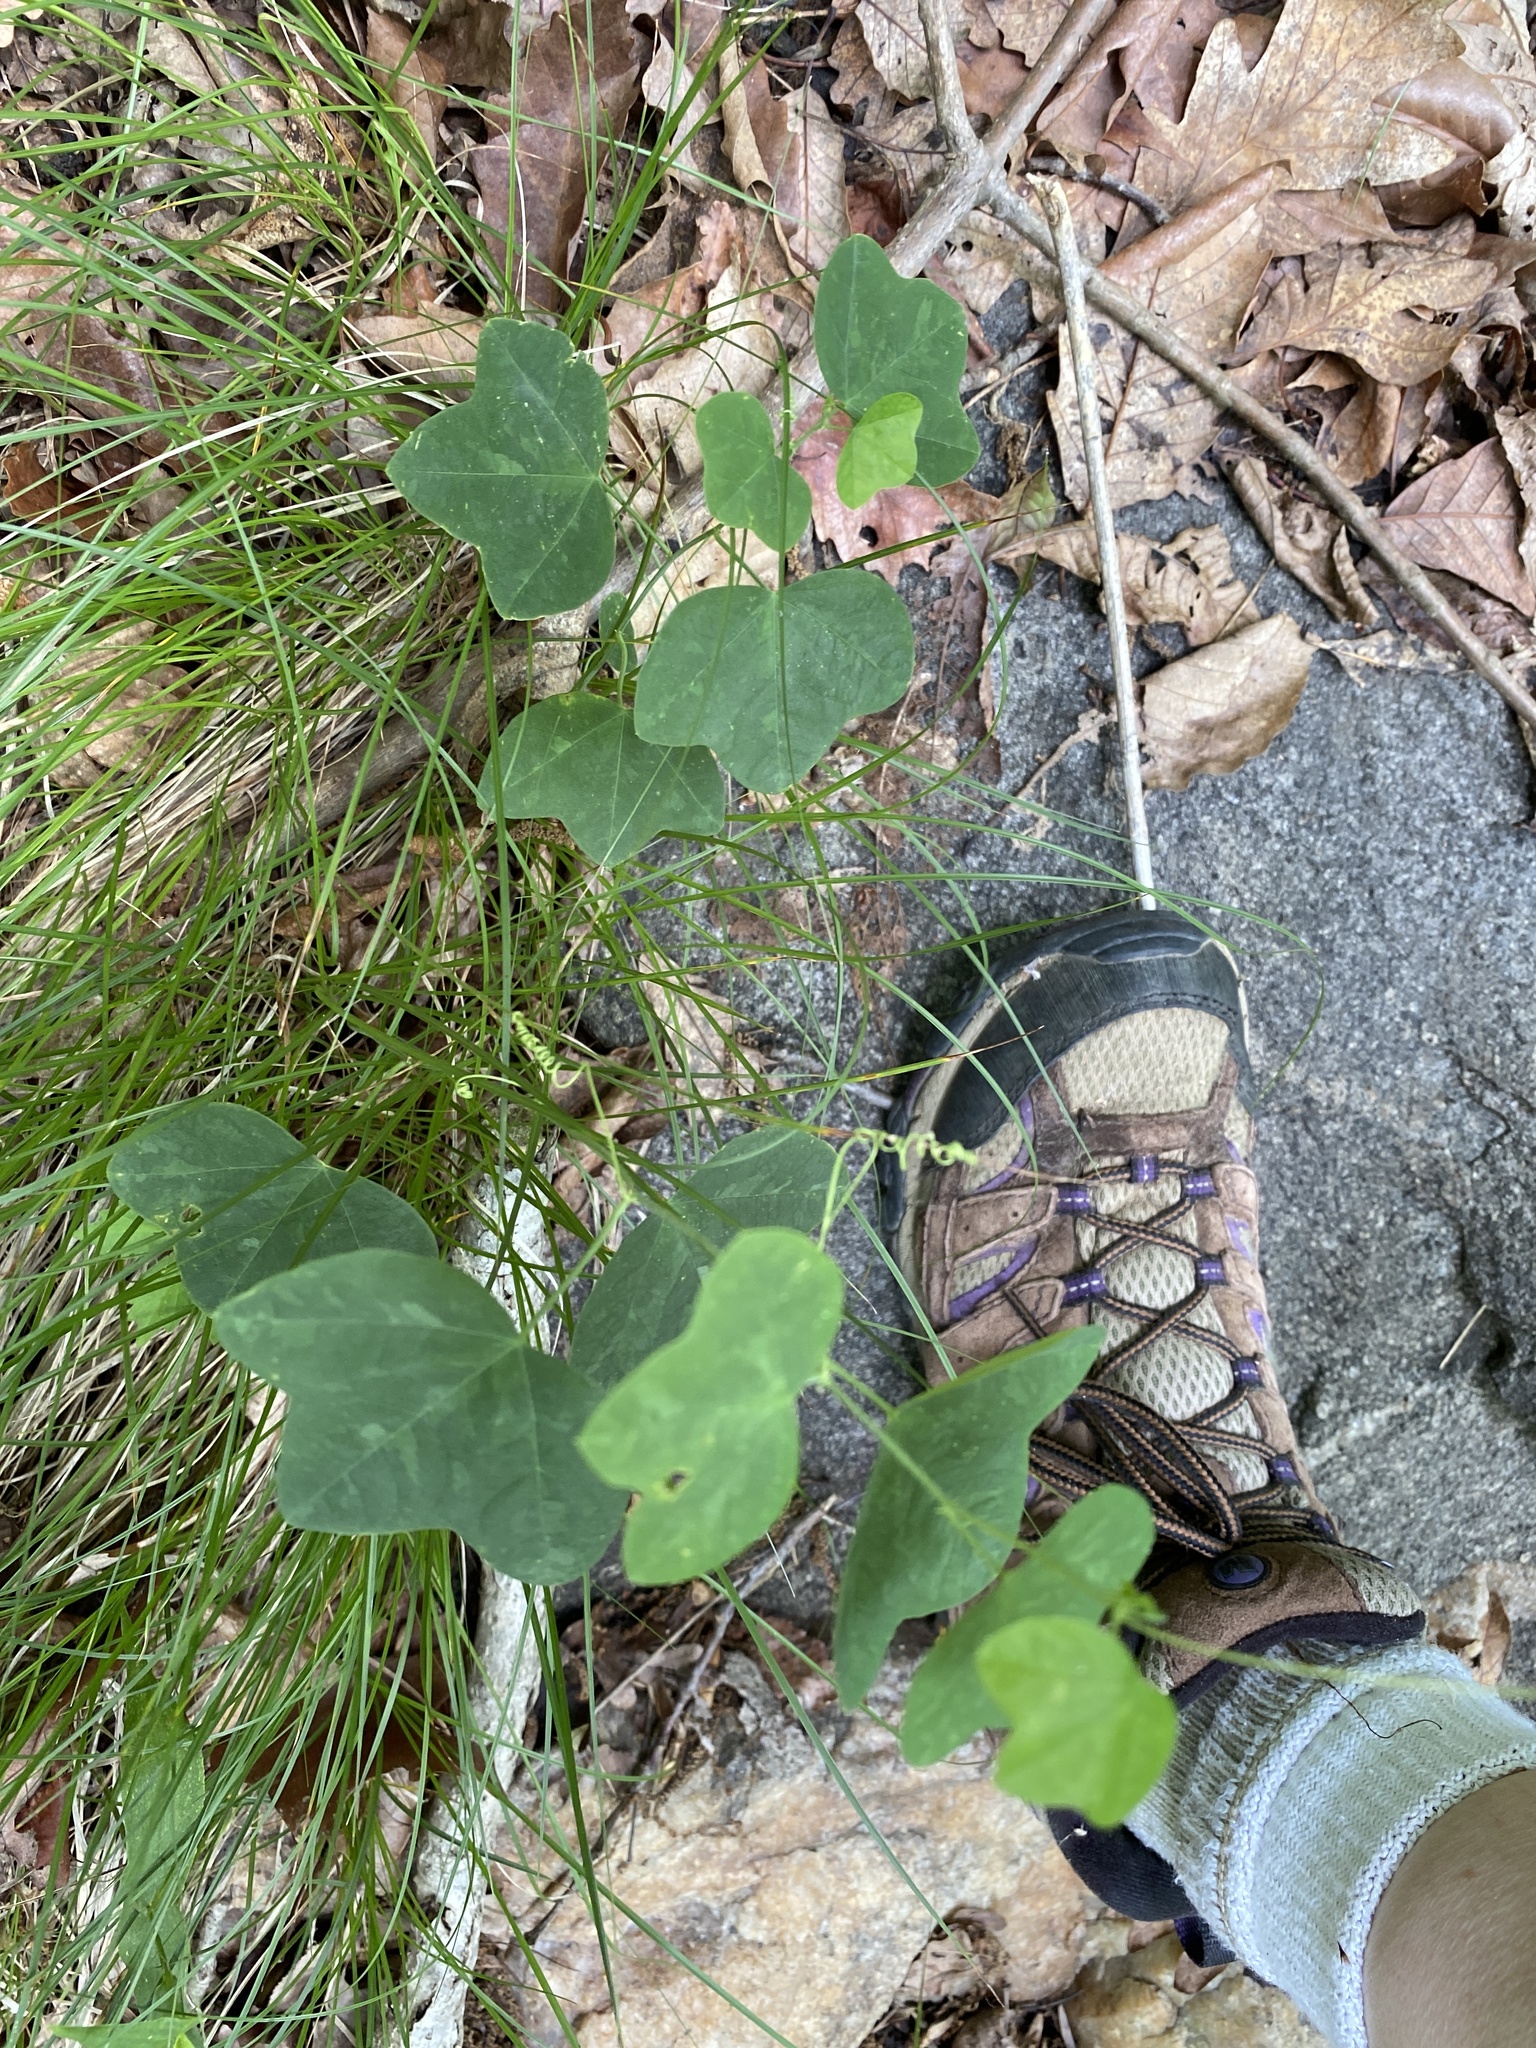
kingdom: Plantae
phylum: Tracheophyta
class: Magnoliopsida
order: Malpighiales
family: Passifloraceae
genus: Passiflora
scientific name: Passiflora lutea
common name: Yellow passionflower
